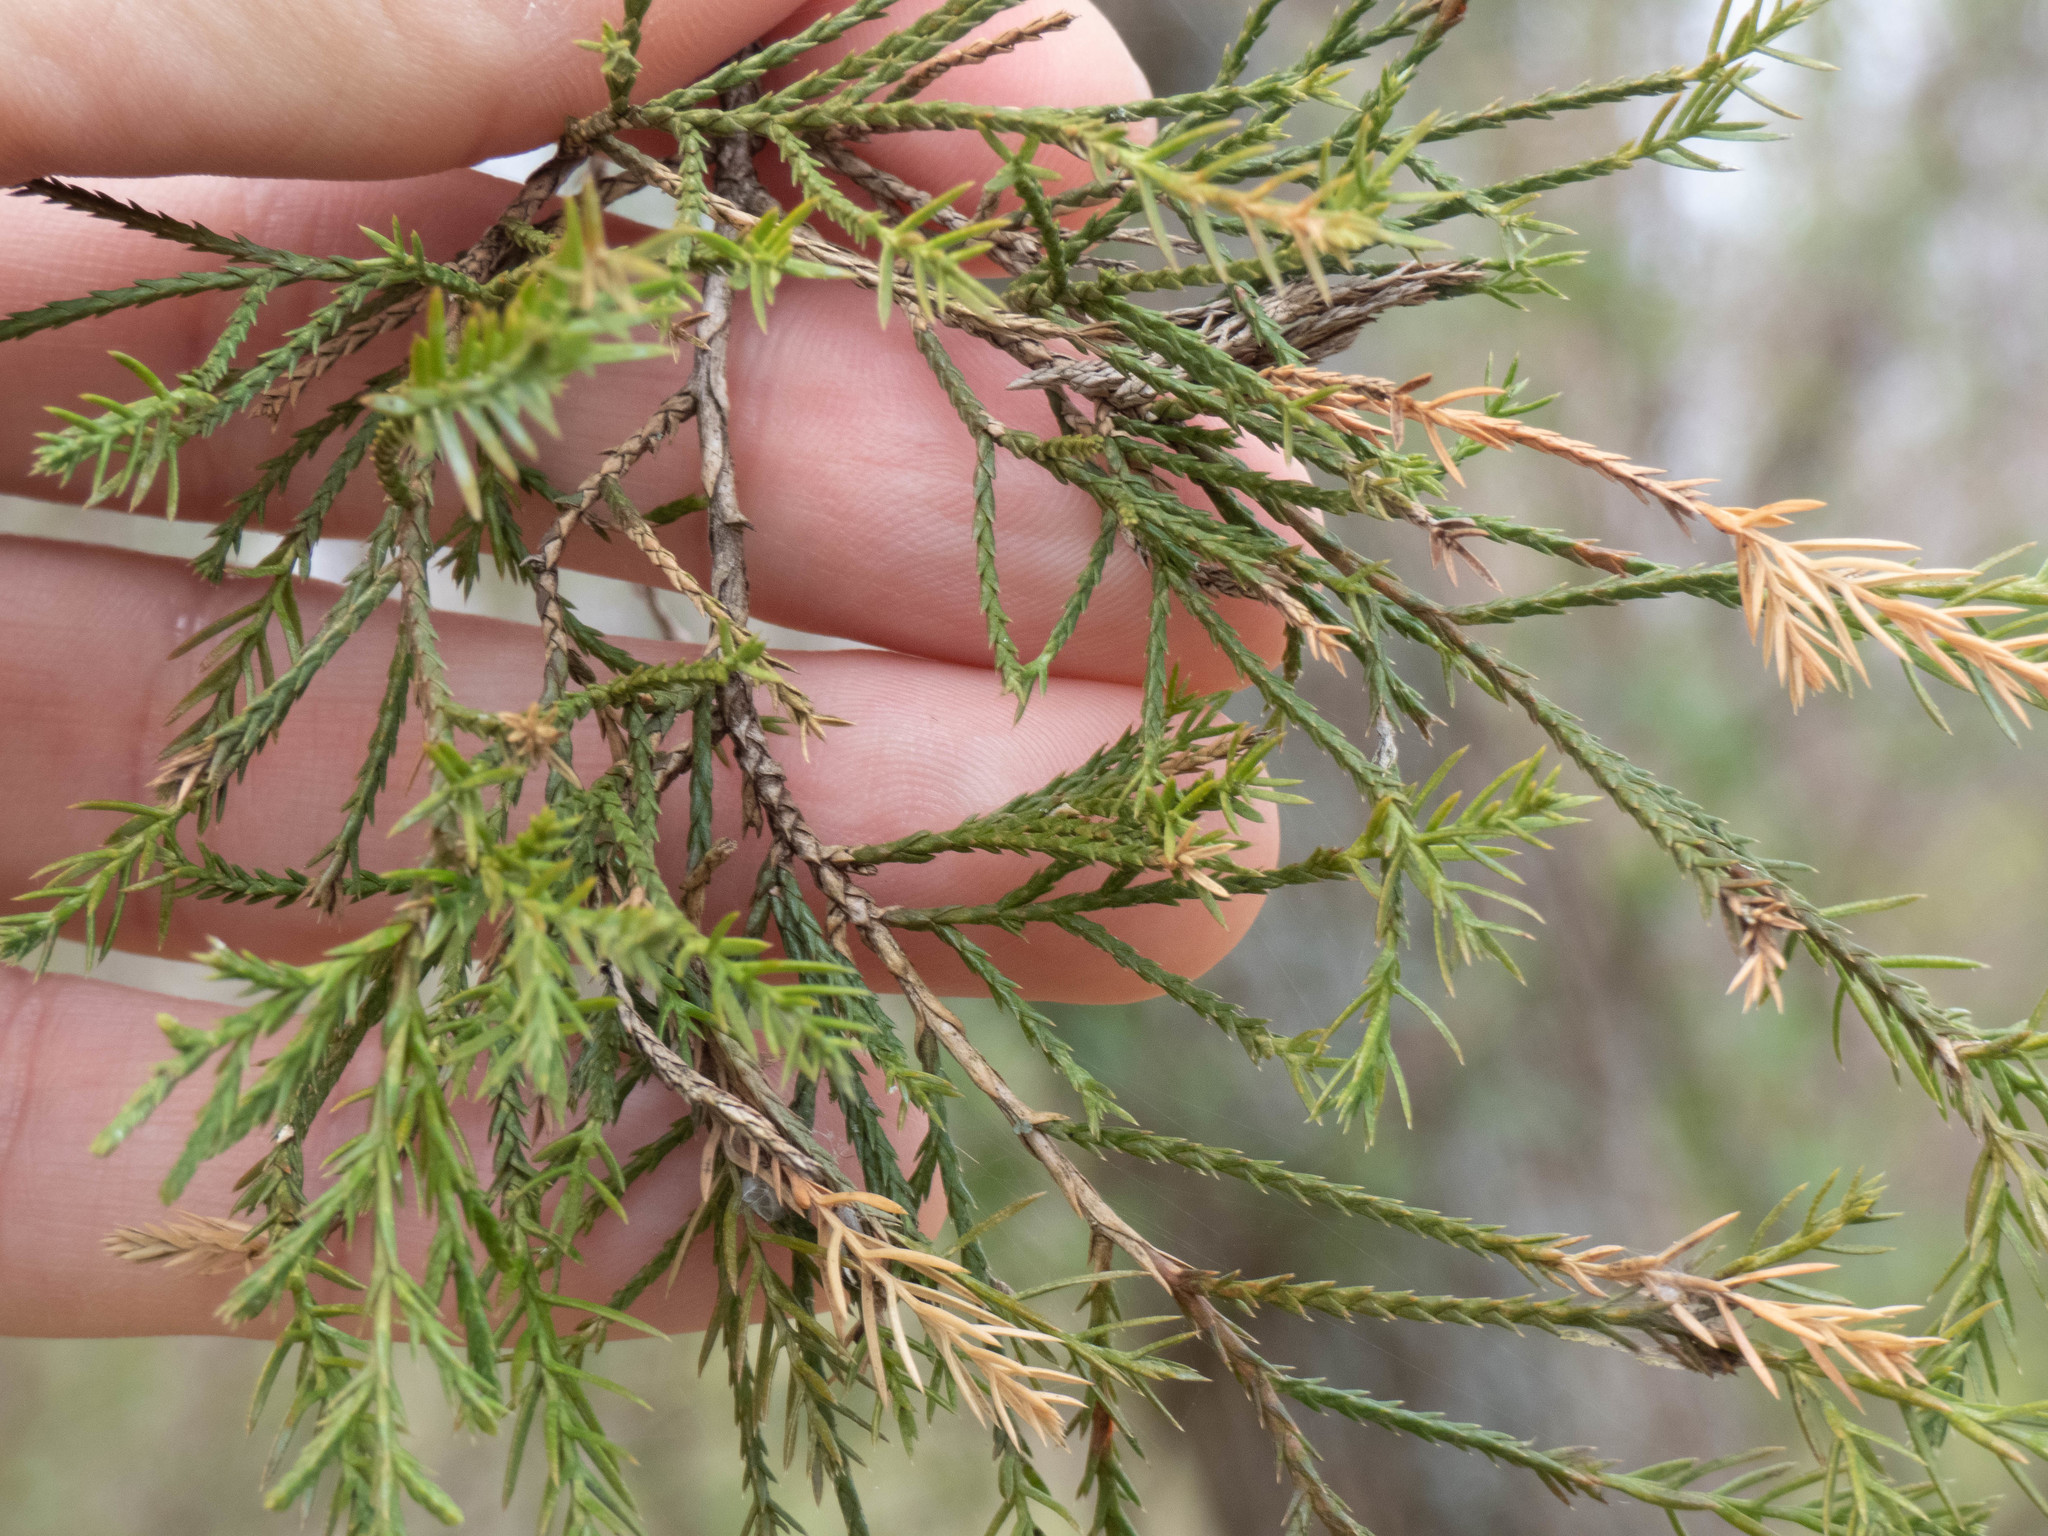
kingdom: Plantae
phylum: Tracheophyta
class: Pinopsida
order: Pinales
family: Cupressaceae
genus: Juniperus
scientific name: Juniperus virginiana
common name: Red juniper
